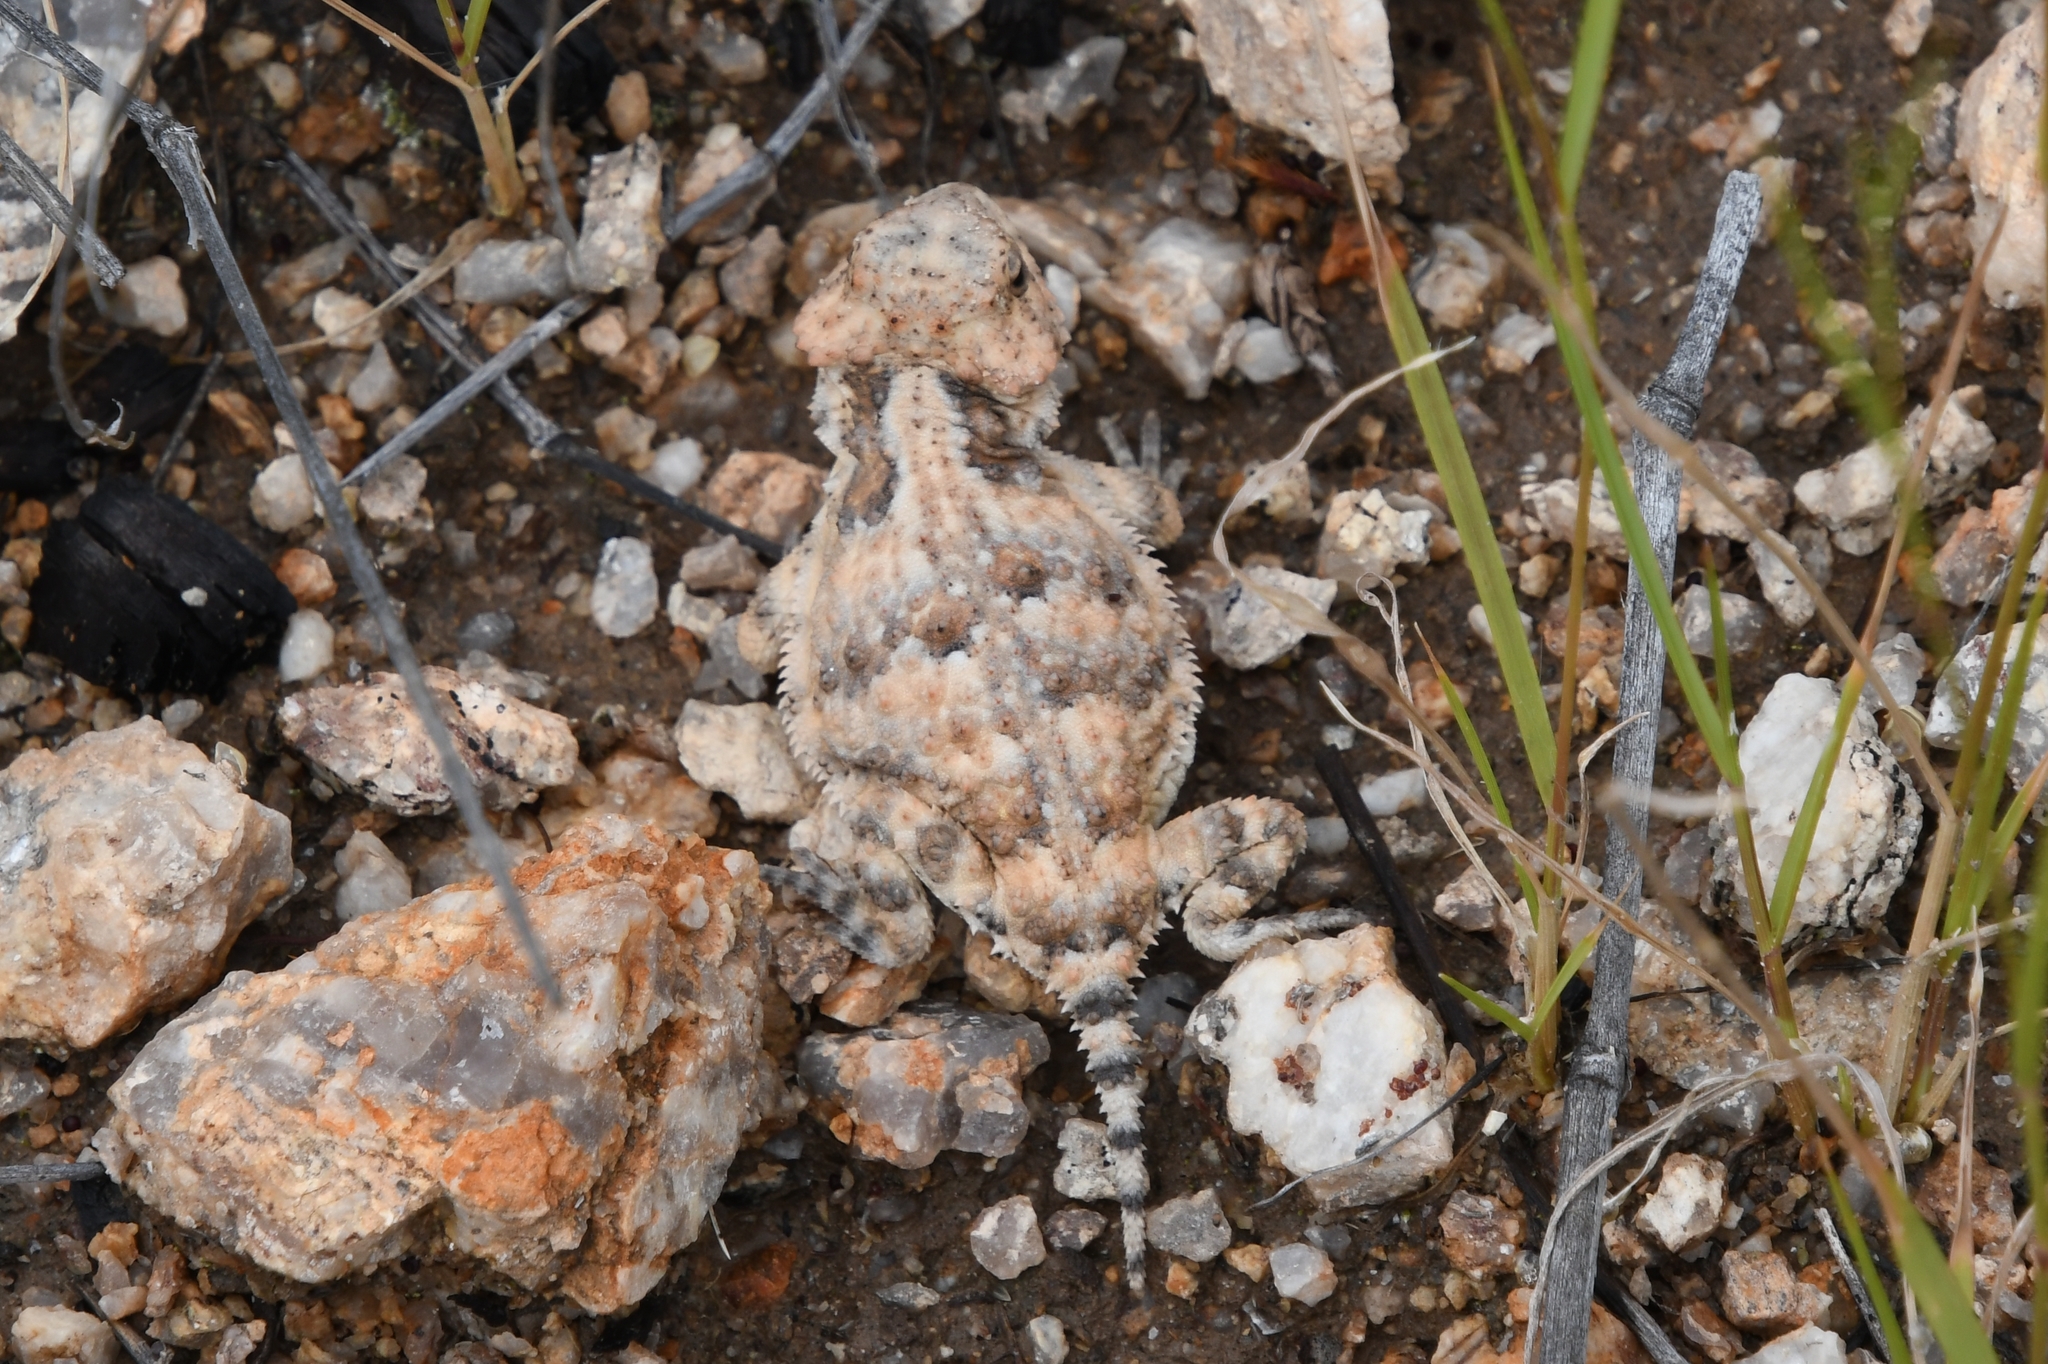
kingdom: Animalia
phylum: Chordata
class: Squamata
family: Phrynosomatidae
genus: Phrynosoma
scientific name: Phrynosoma hernandesi
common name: Greater short-horned lizard
